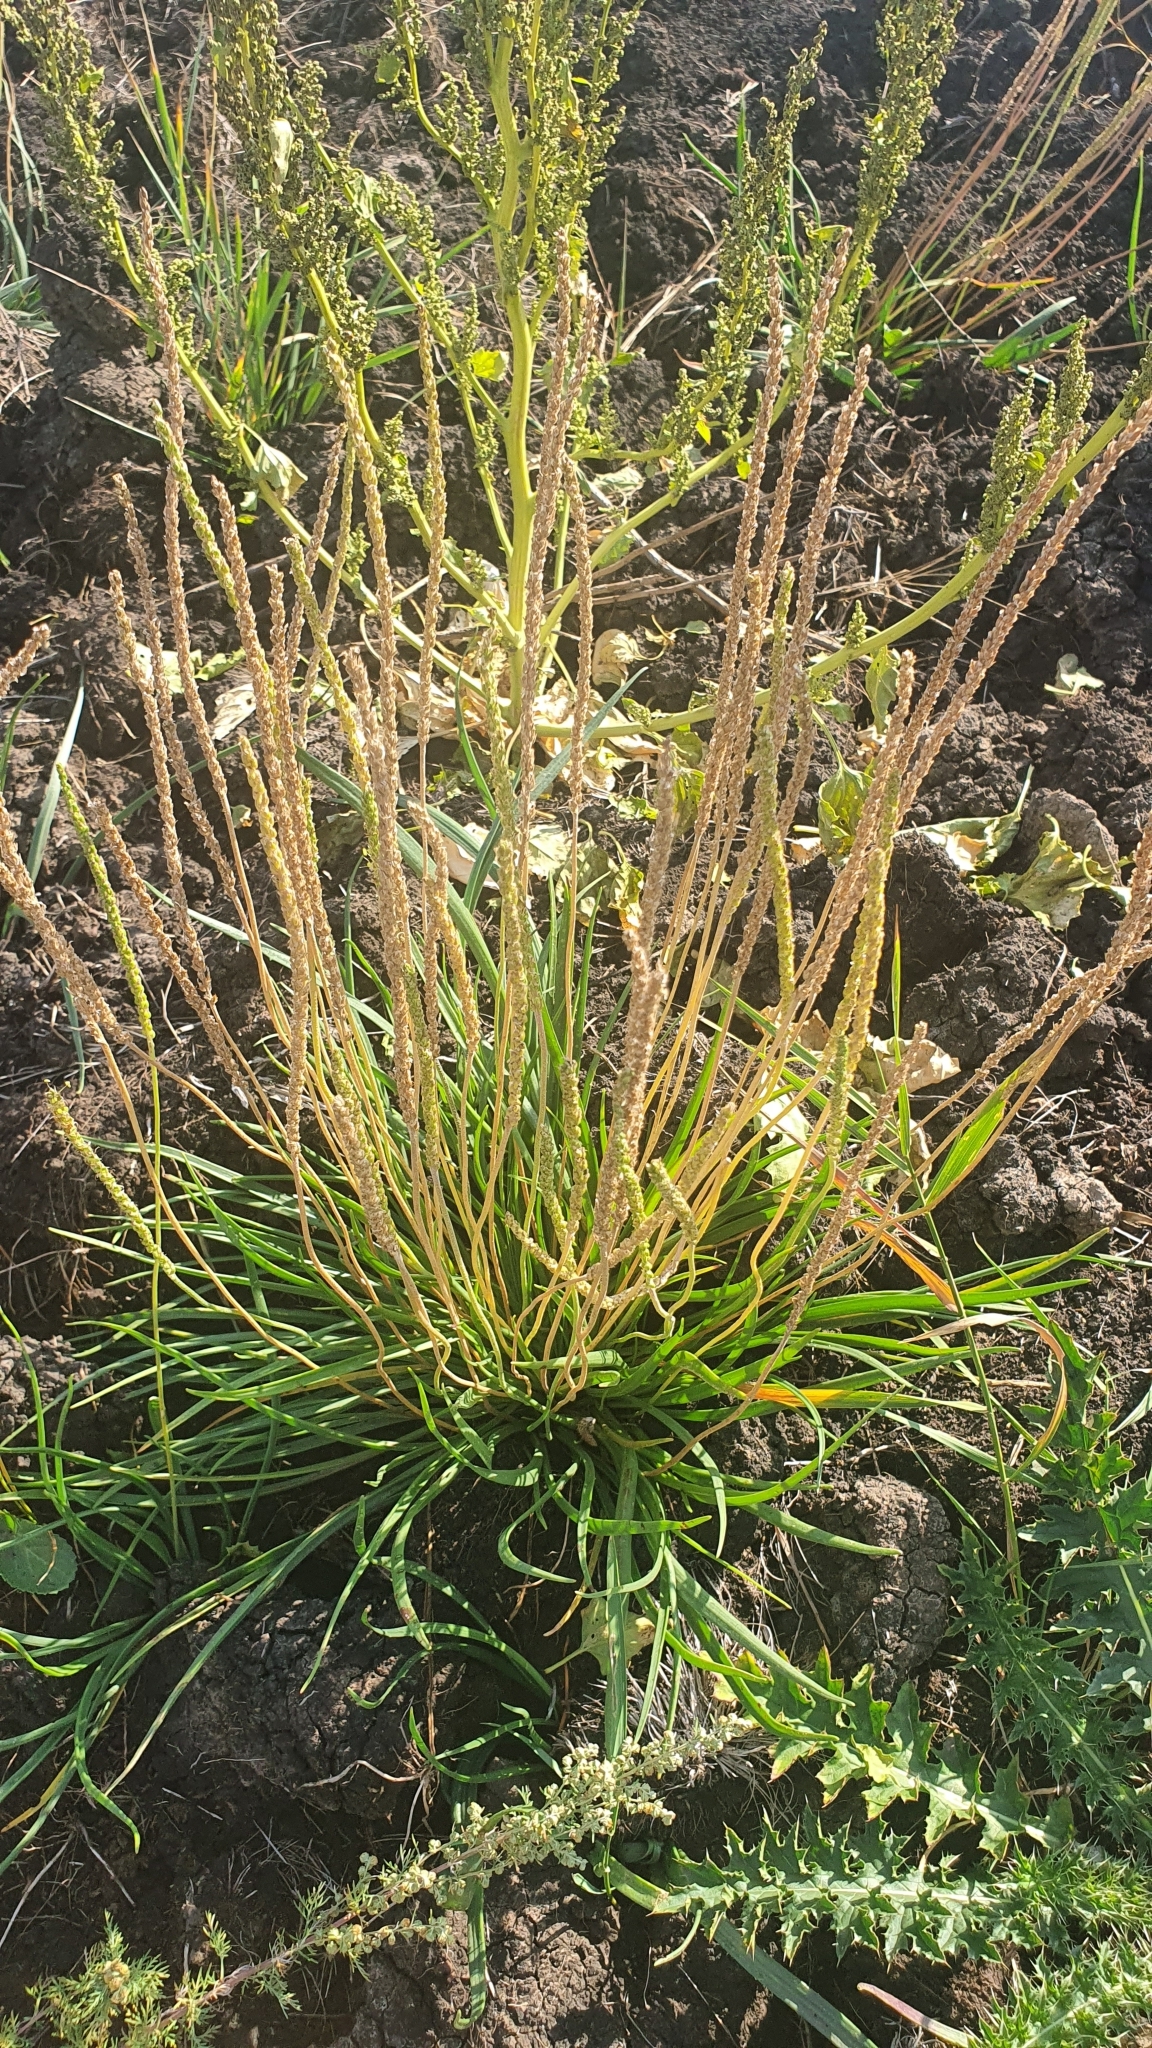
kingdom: Plantae
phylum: Tracheophyta
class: Magnoliopsida
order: Lamiales
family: Plantaginaceae
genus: Plantago
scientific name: Plantago salsa
